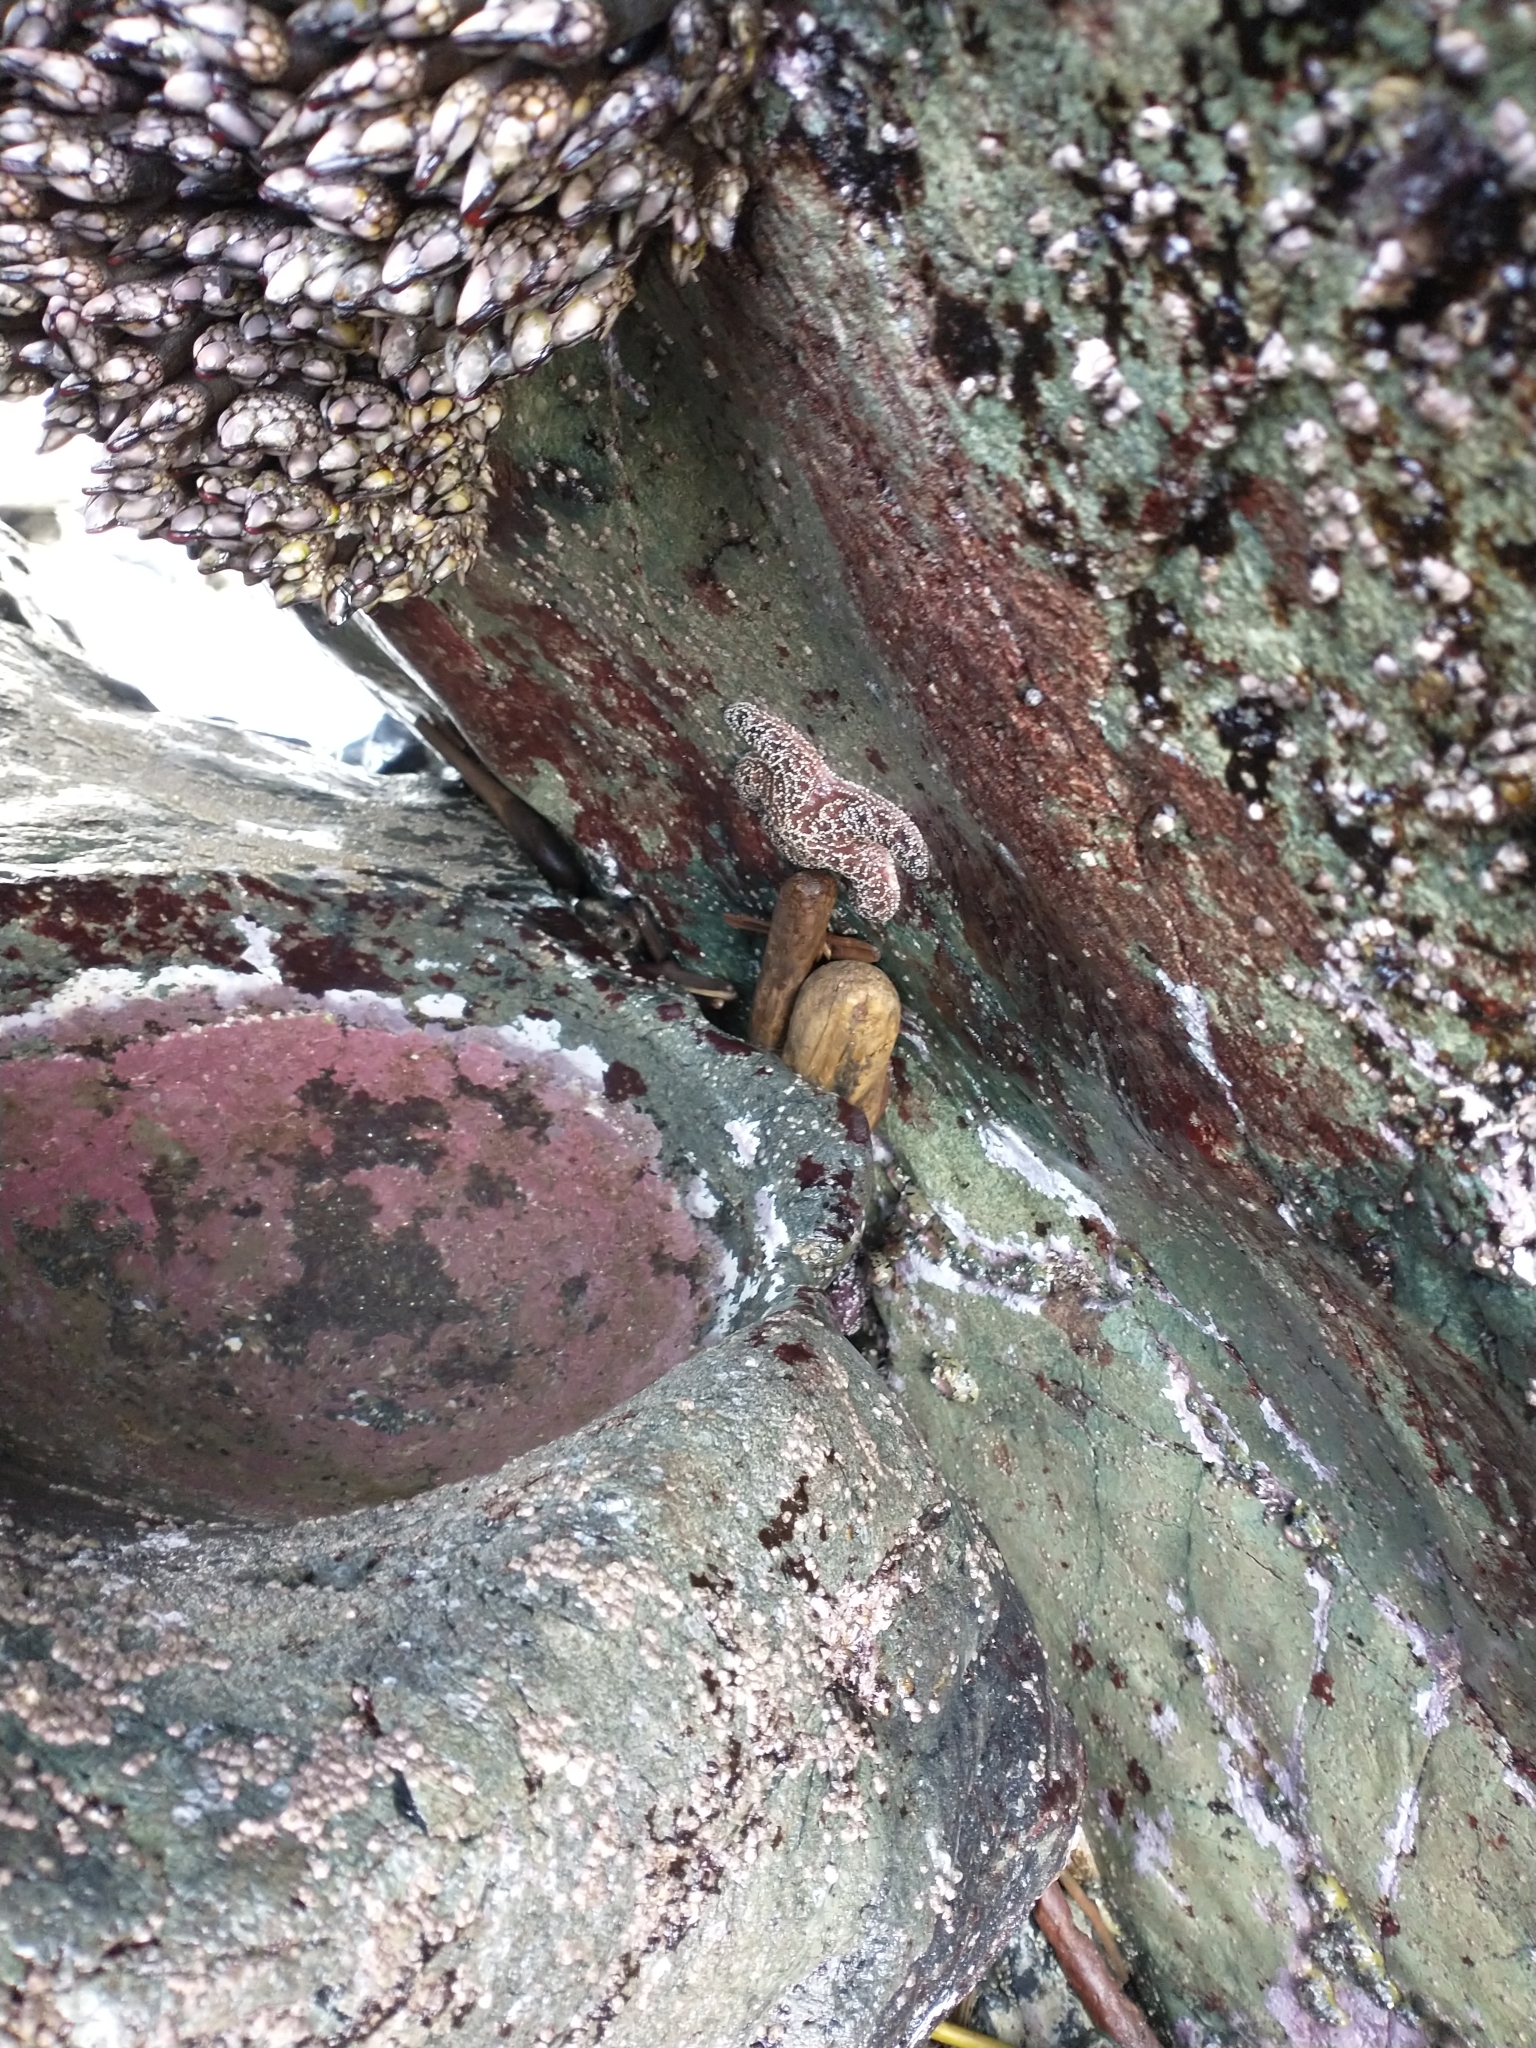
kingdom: Animalia
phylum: Echinodermata
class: Asteroidea
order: Forcipulatida
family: Asteriidae
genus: Pisaster
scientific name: Pisaster ochraceus
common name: Ochre stars
